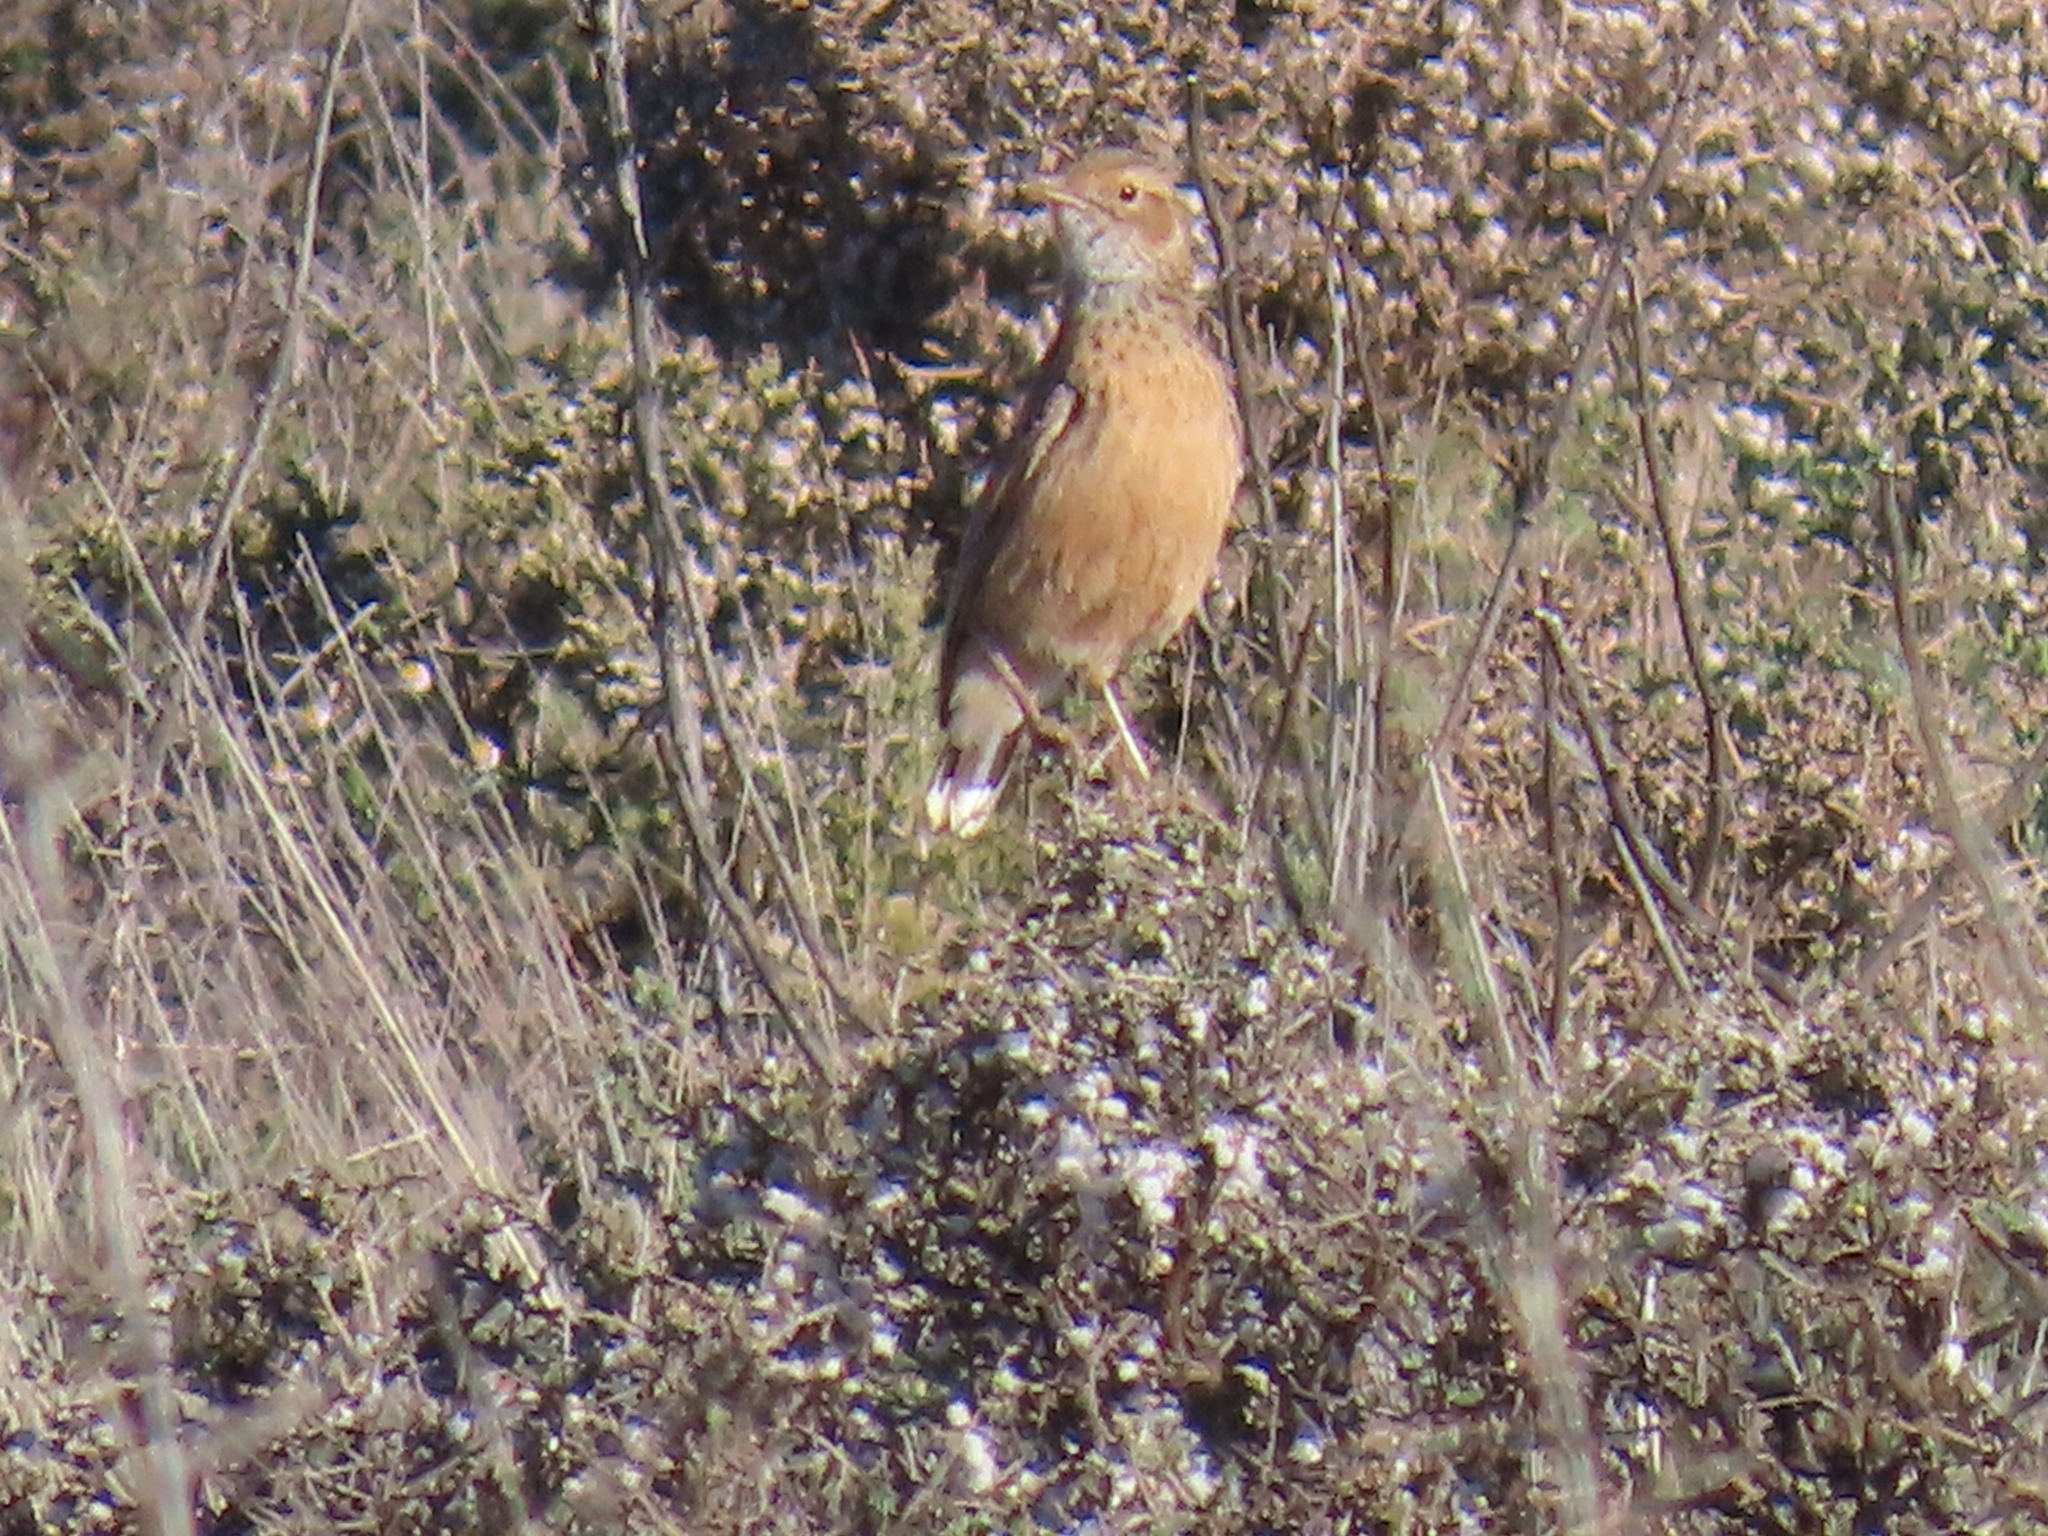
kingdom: Animalia
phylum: Chordata
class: Aves
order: Passeriformes
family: Alaudidae
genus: Chersomanes
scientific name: Chersomanes albofasciata
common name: Spike-heeled lark
